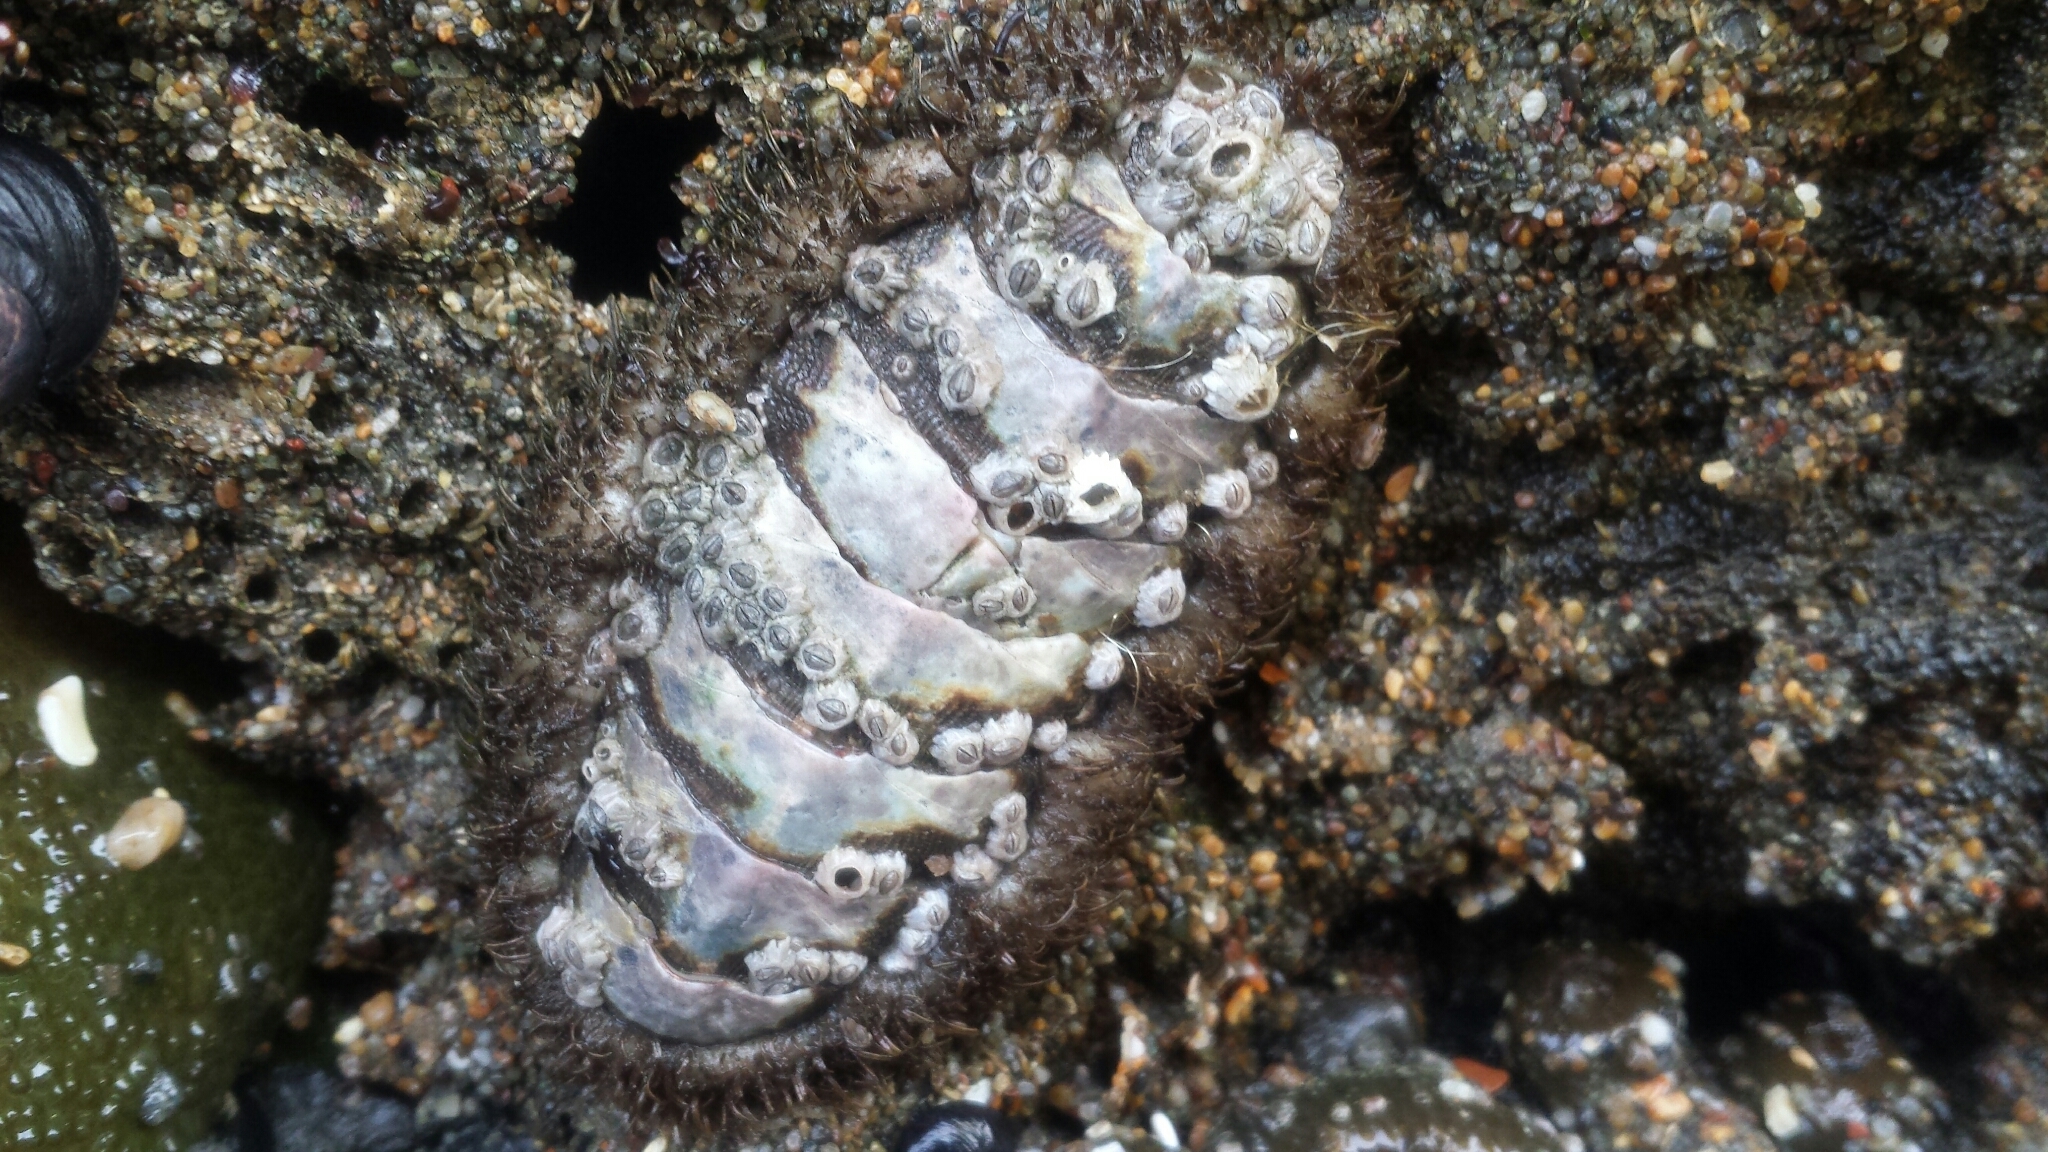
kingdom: Animalia
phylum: Mollusca
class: Polyplacophora
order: Chitonida
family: Mopaliidae
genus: Mopalia
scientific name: Mopalia muscosa
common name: Mossy chiton
